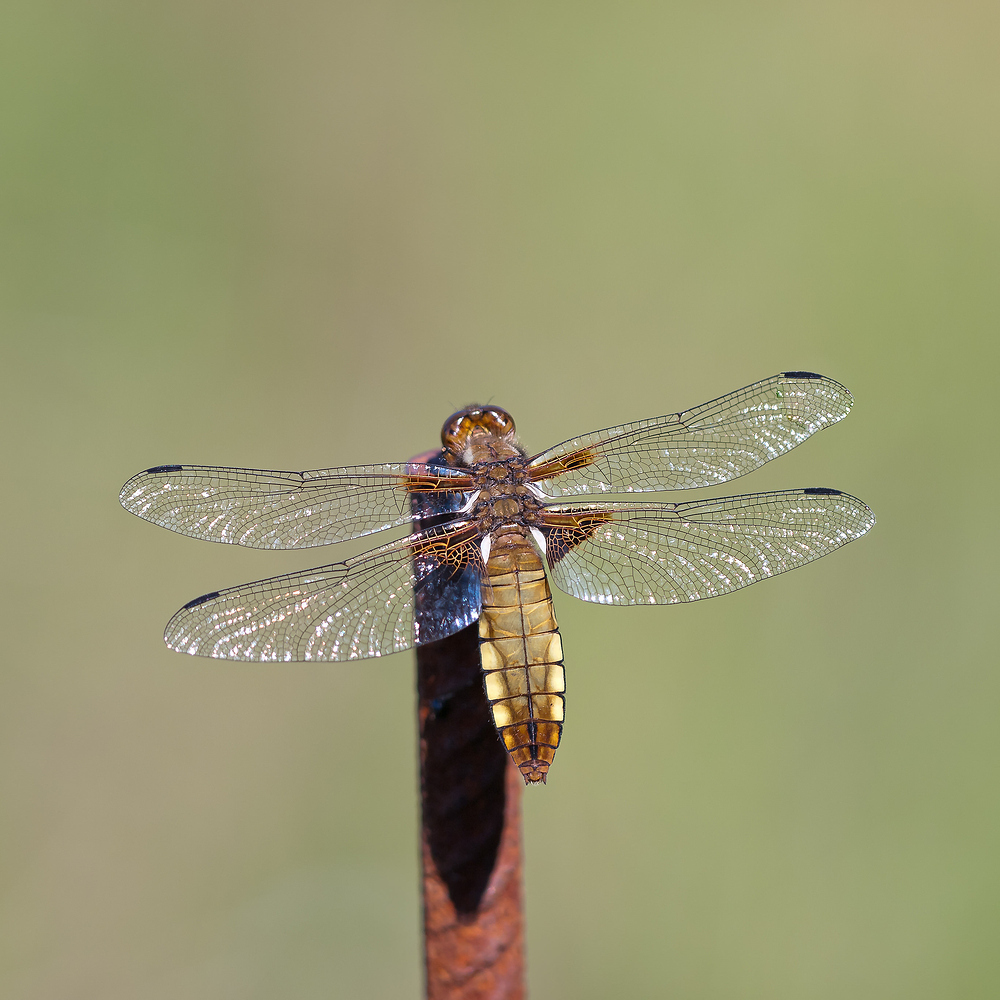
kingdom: Animalia
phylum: Arthropoda
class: Insecta
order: Odonata
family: Libellulidae
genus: Libellula
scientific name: Libellula depressa
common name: Broad-bodied chaser
